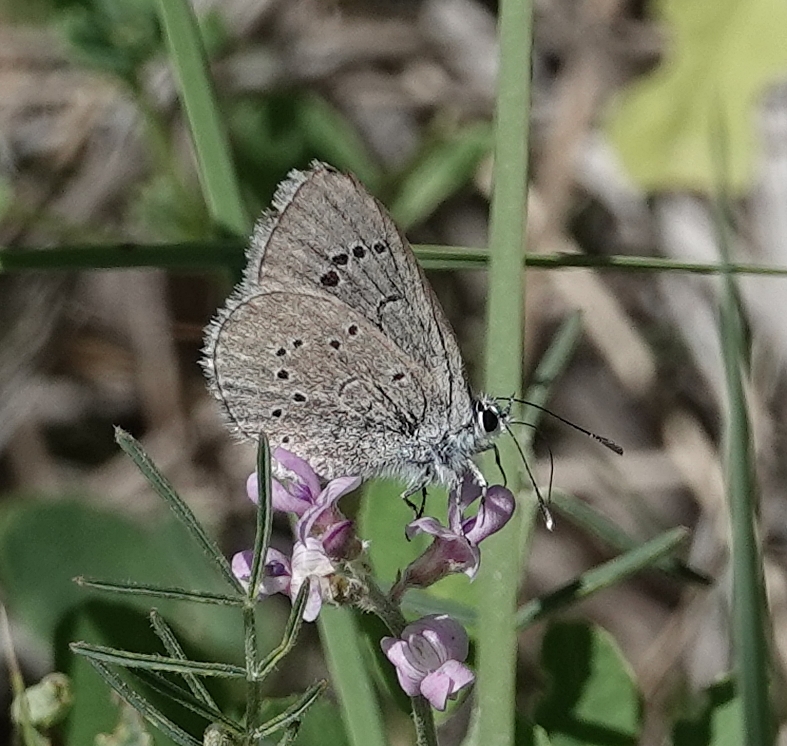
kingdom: Animalia
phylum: Arthropoda
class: Insecta
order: Lepidoptera
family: Lycaenidae
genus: Glaucopsyche
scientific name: Glaucopsyche lygdamus
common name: Silvery blue
